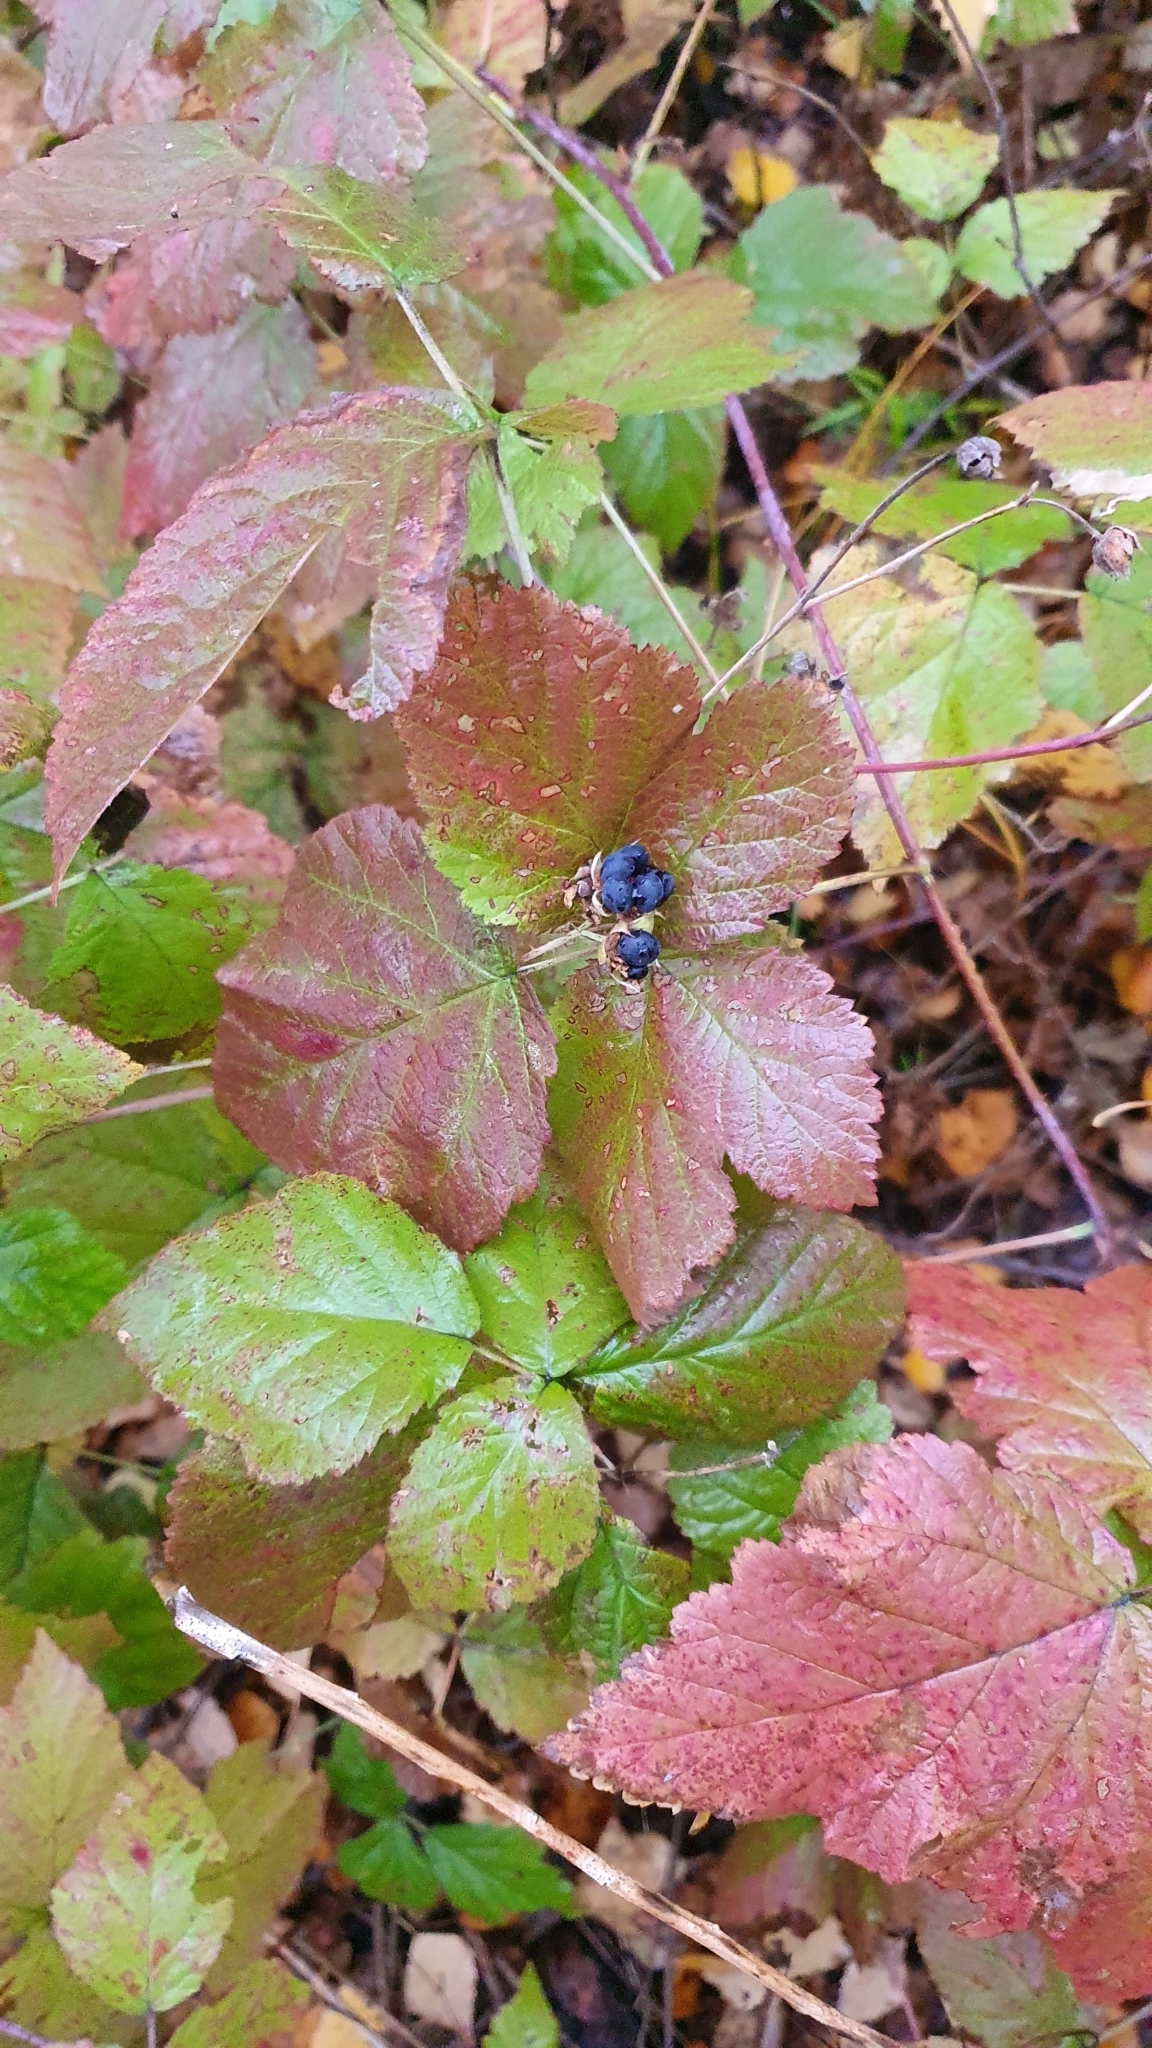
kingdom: Plantae
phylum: Tracheophyta
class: Magnoliopsida
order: Rosales
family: Rosaceae
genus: Rubus
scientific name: Rubus caesius
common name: Dewberry
